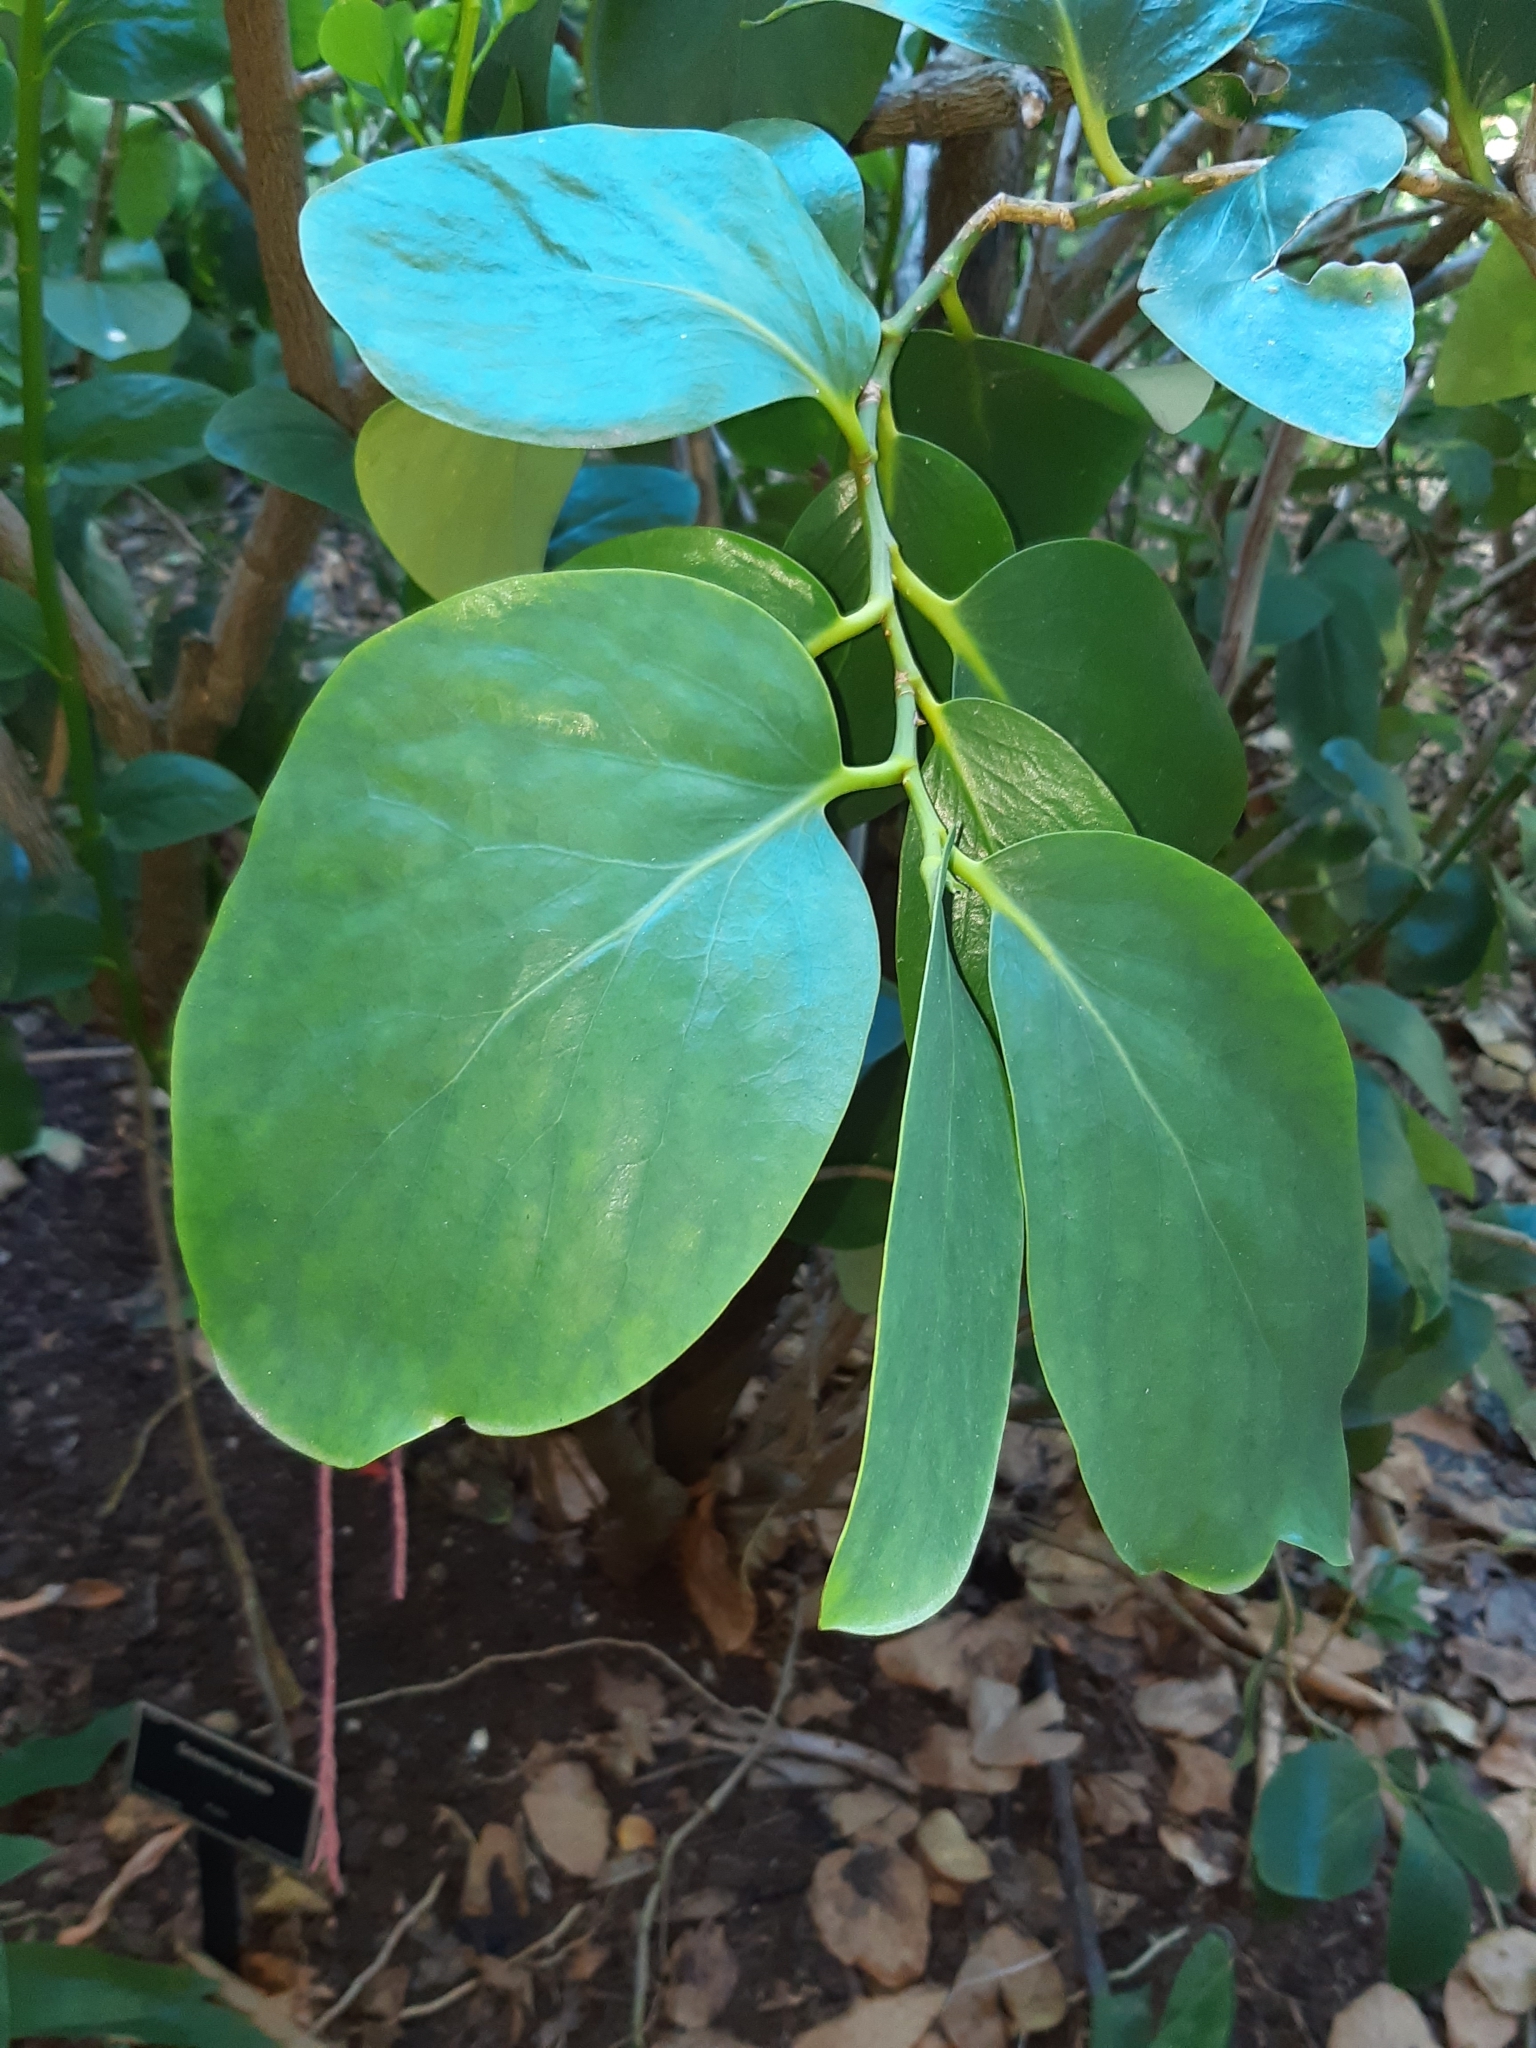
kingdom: Plantae
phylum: Tracheophyta
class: Magnoliopsida
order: Apiales
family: Griseliniaceae
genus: Griselinia
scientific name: Griselinia lucida
